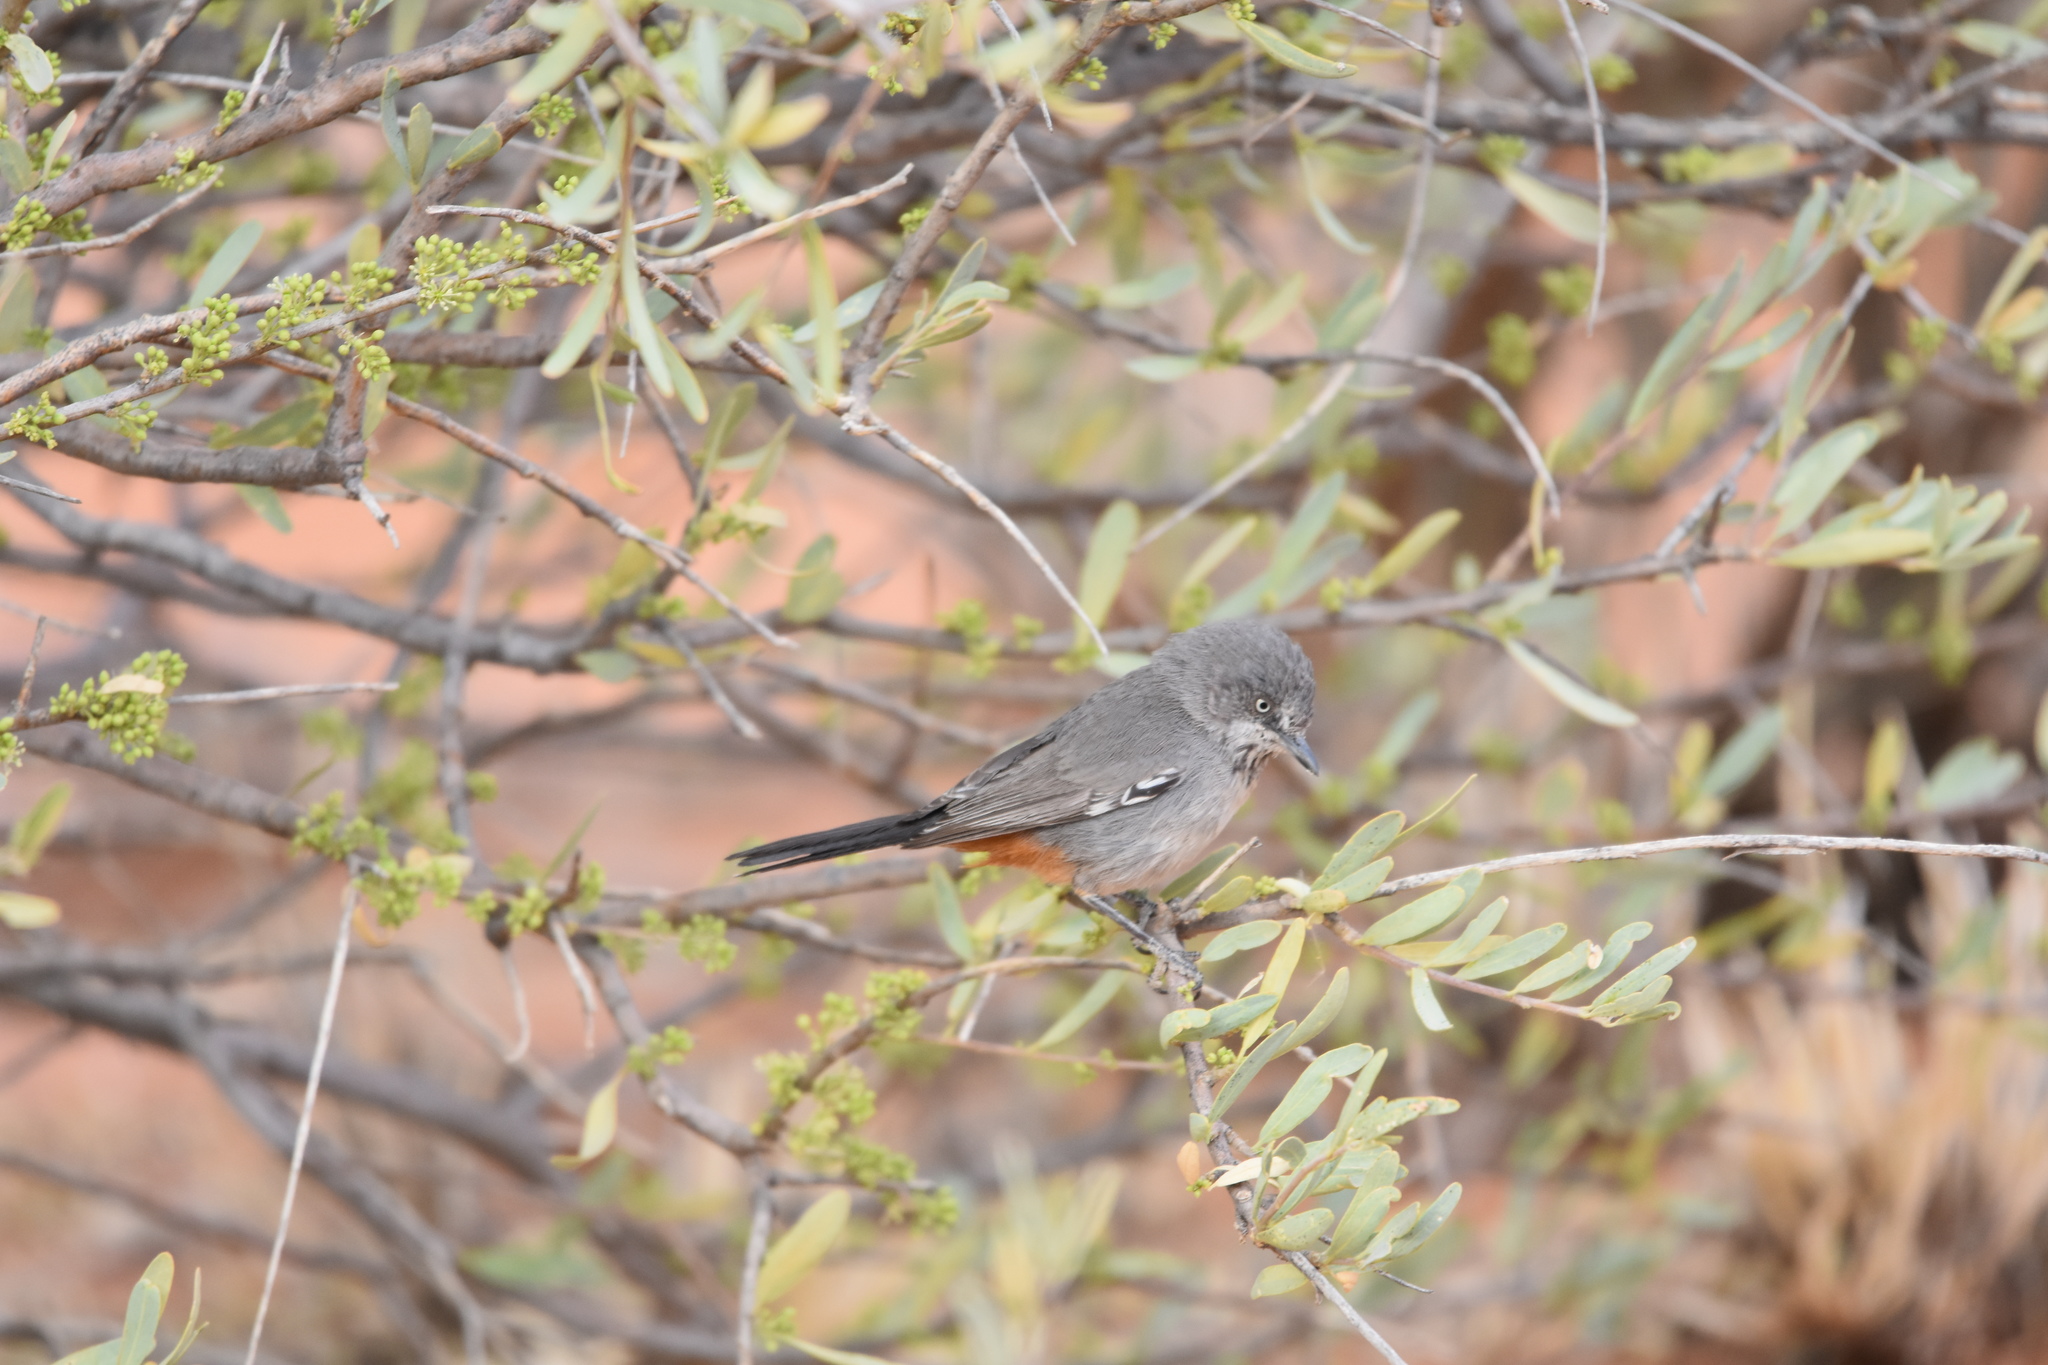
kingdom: Animalia
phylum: Chordata
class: Aves
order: Passeriformes
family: Sylviidae
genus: Curruca
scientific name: Curruca subcoerulea
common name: Chestnut-vented warbler
